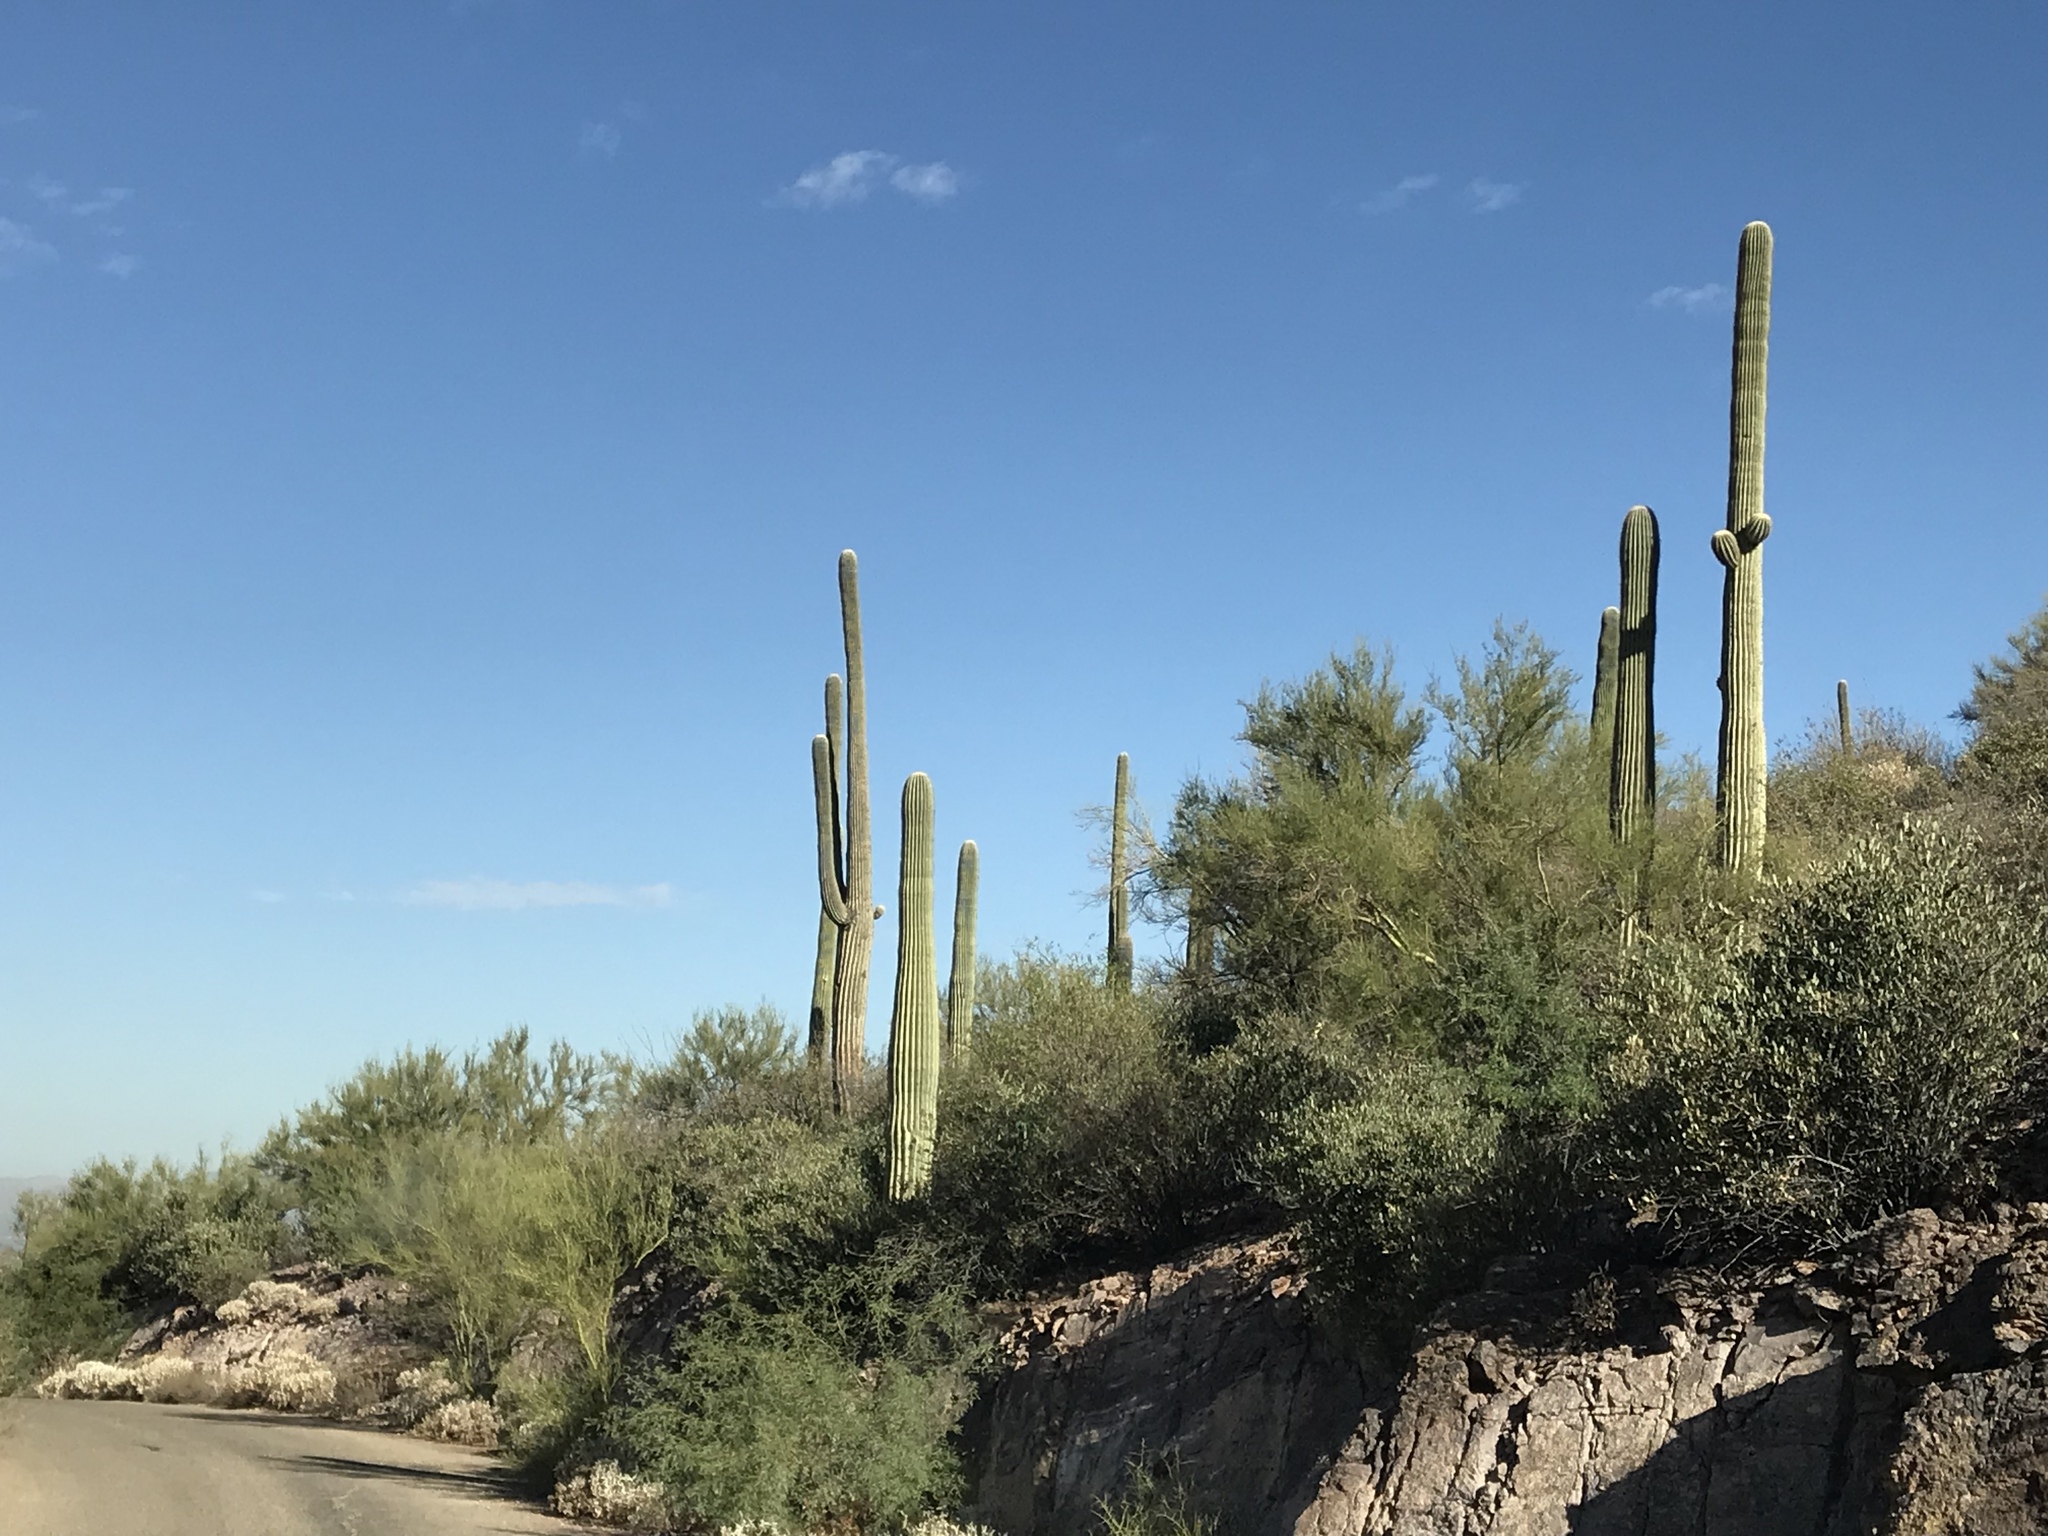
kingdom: Plantae
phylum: Tracheophyta
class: Magnoliopsida
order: Caryophyllales
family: Cactaceae
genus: Carnegiea
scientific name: Carnegiea gigantea
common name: Saguaro
